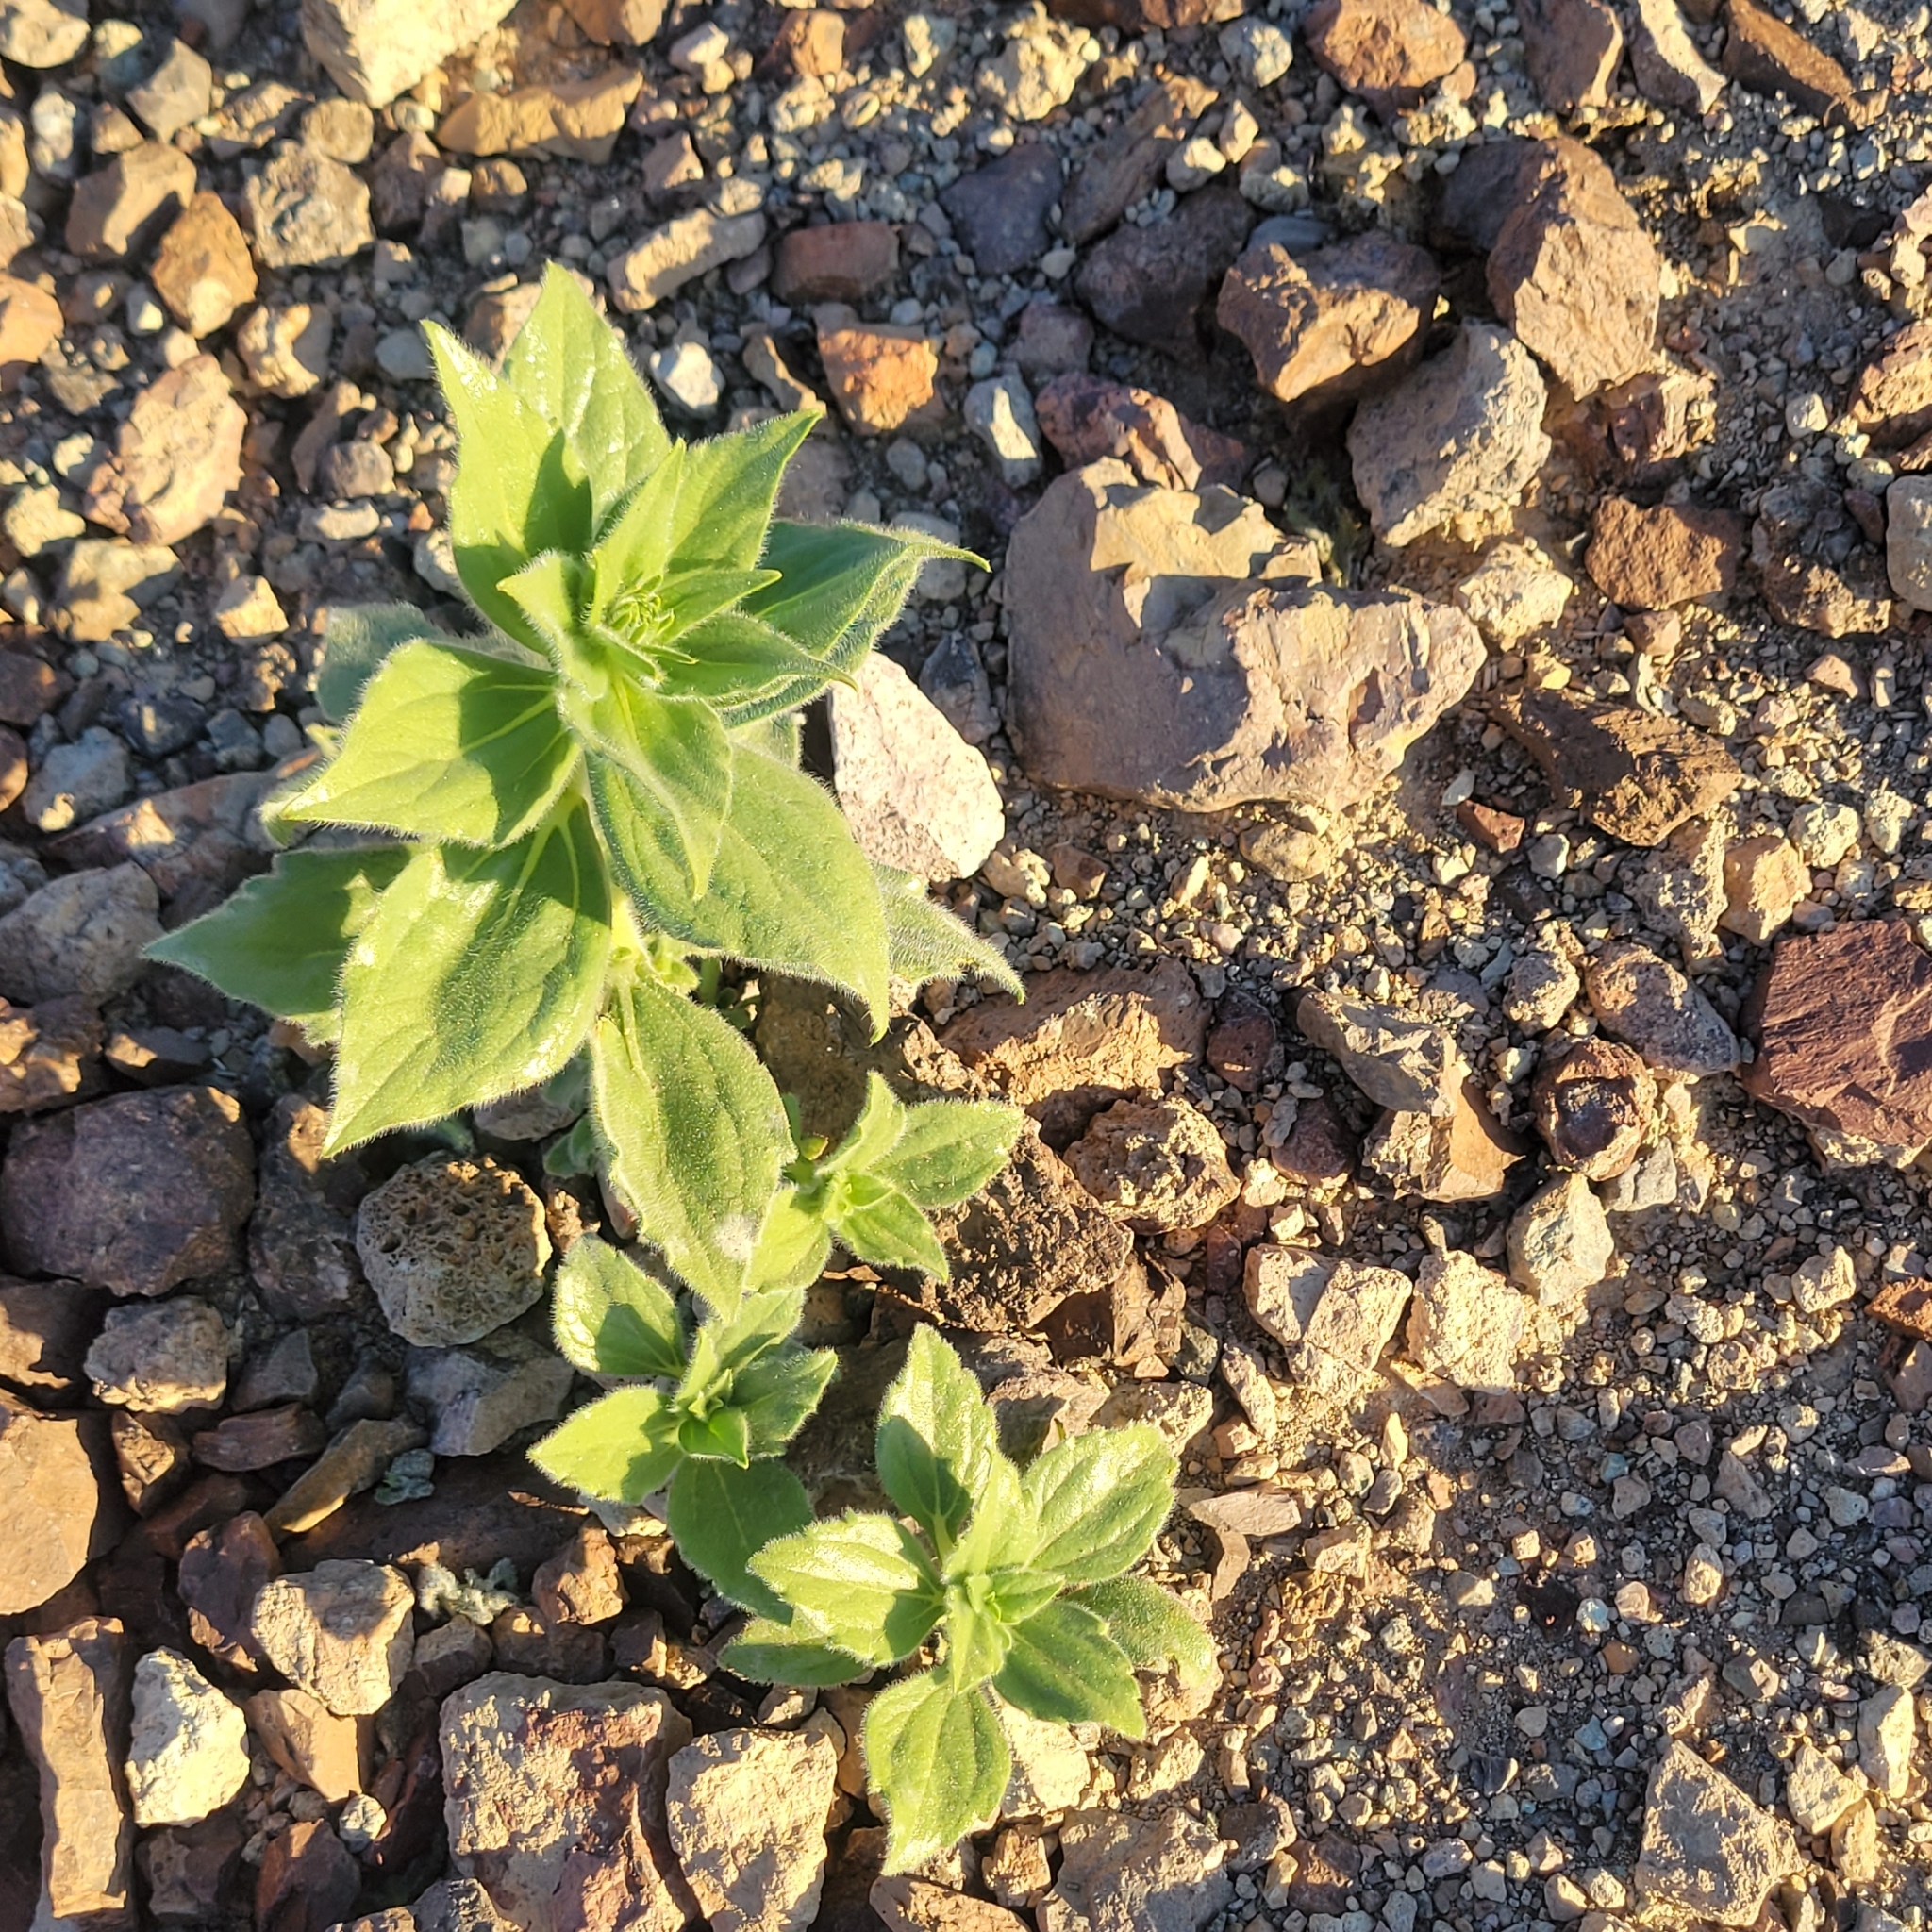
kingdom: Plantae
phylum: Tracheophyta
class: Magnoliopsida
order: Asterales
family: Asteraceae
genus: Geraea
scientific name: Geraea canescens
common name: Desert-gold
